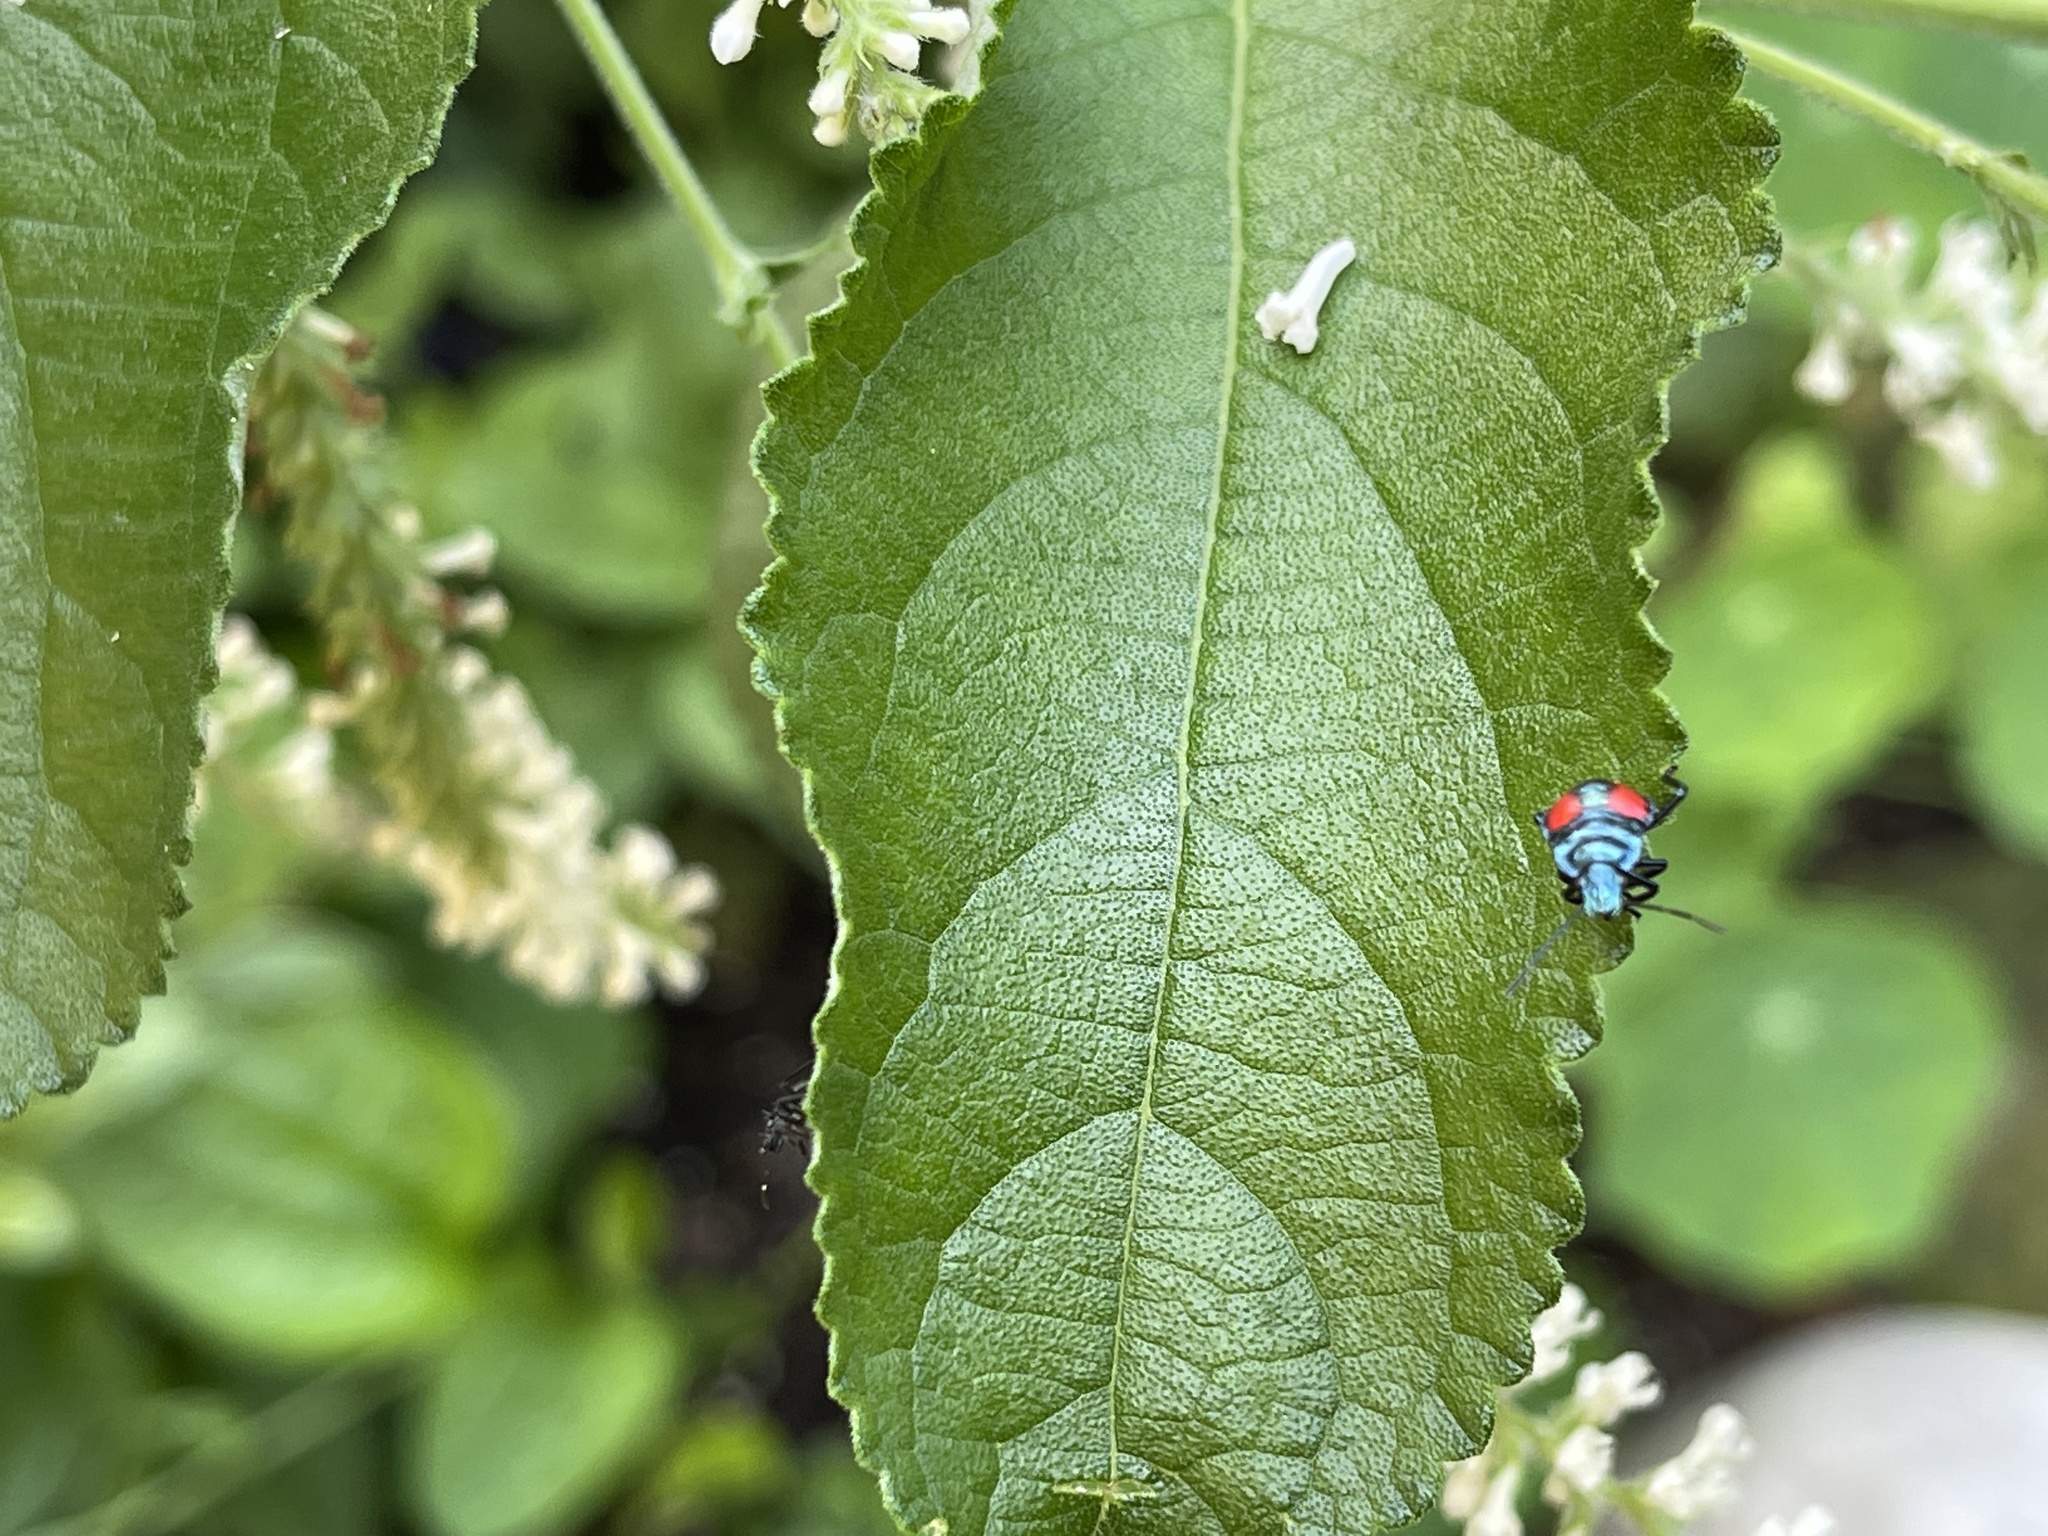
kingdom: Animalia
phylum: Arthropoda
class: Insecta
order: Hemiptera
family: Pentatomidae
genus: Euthyrhynchus
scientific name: Euthyrhynchus floridanus
